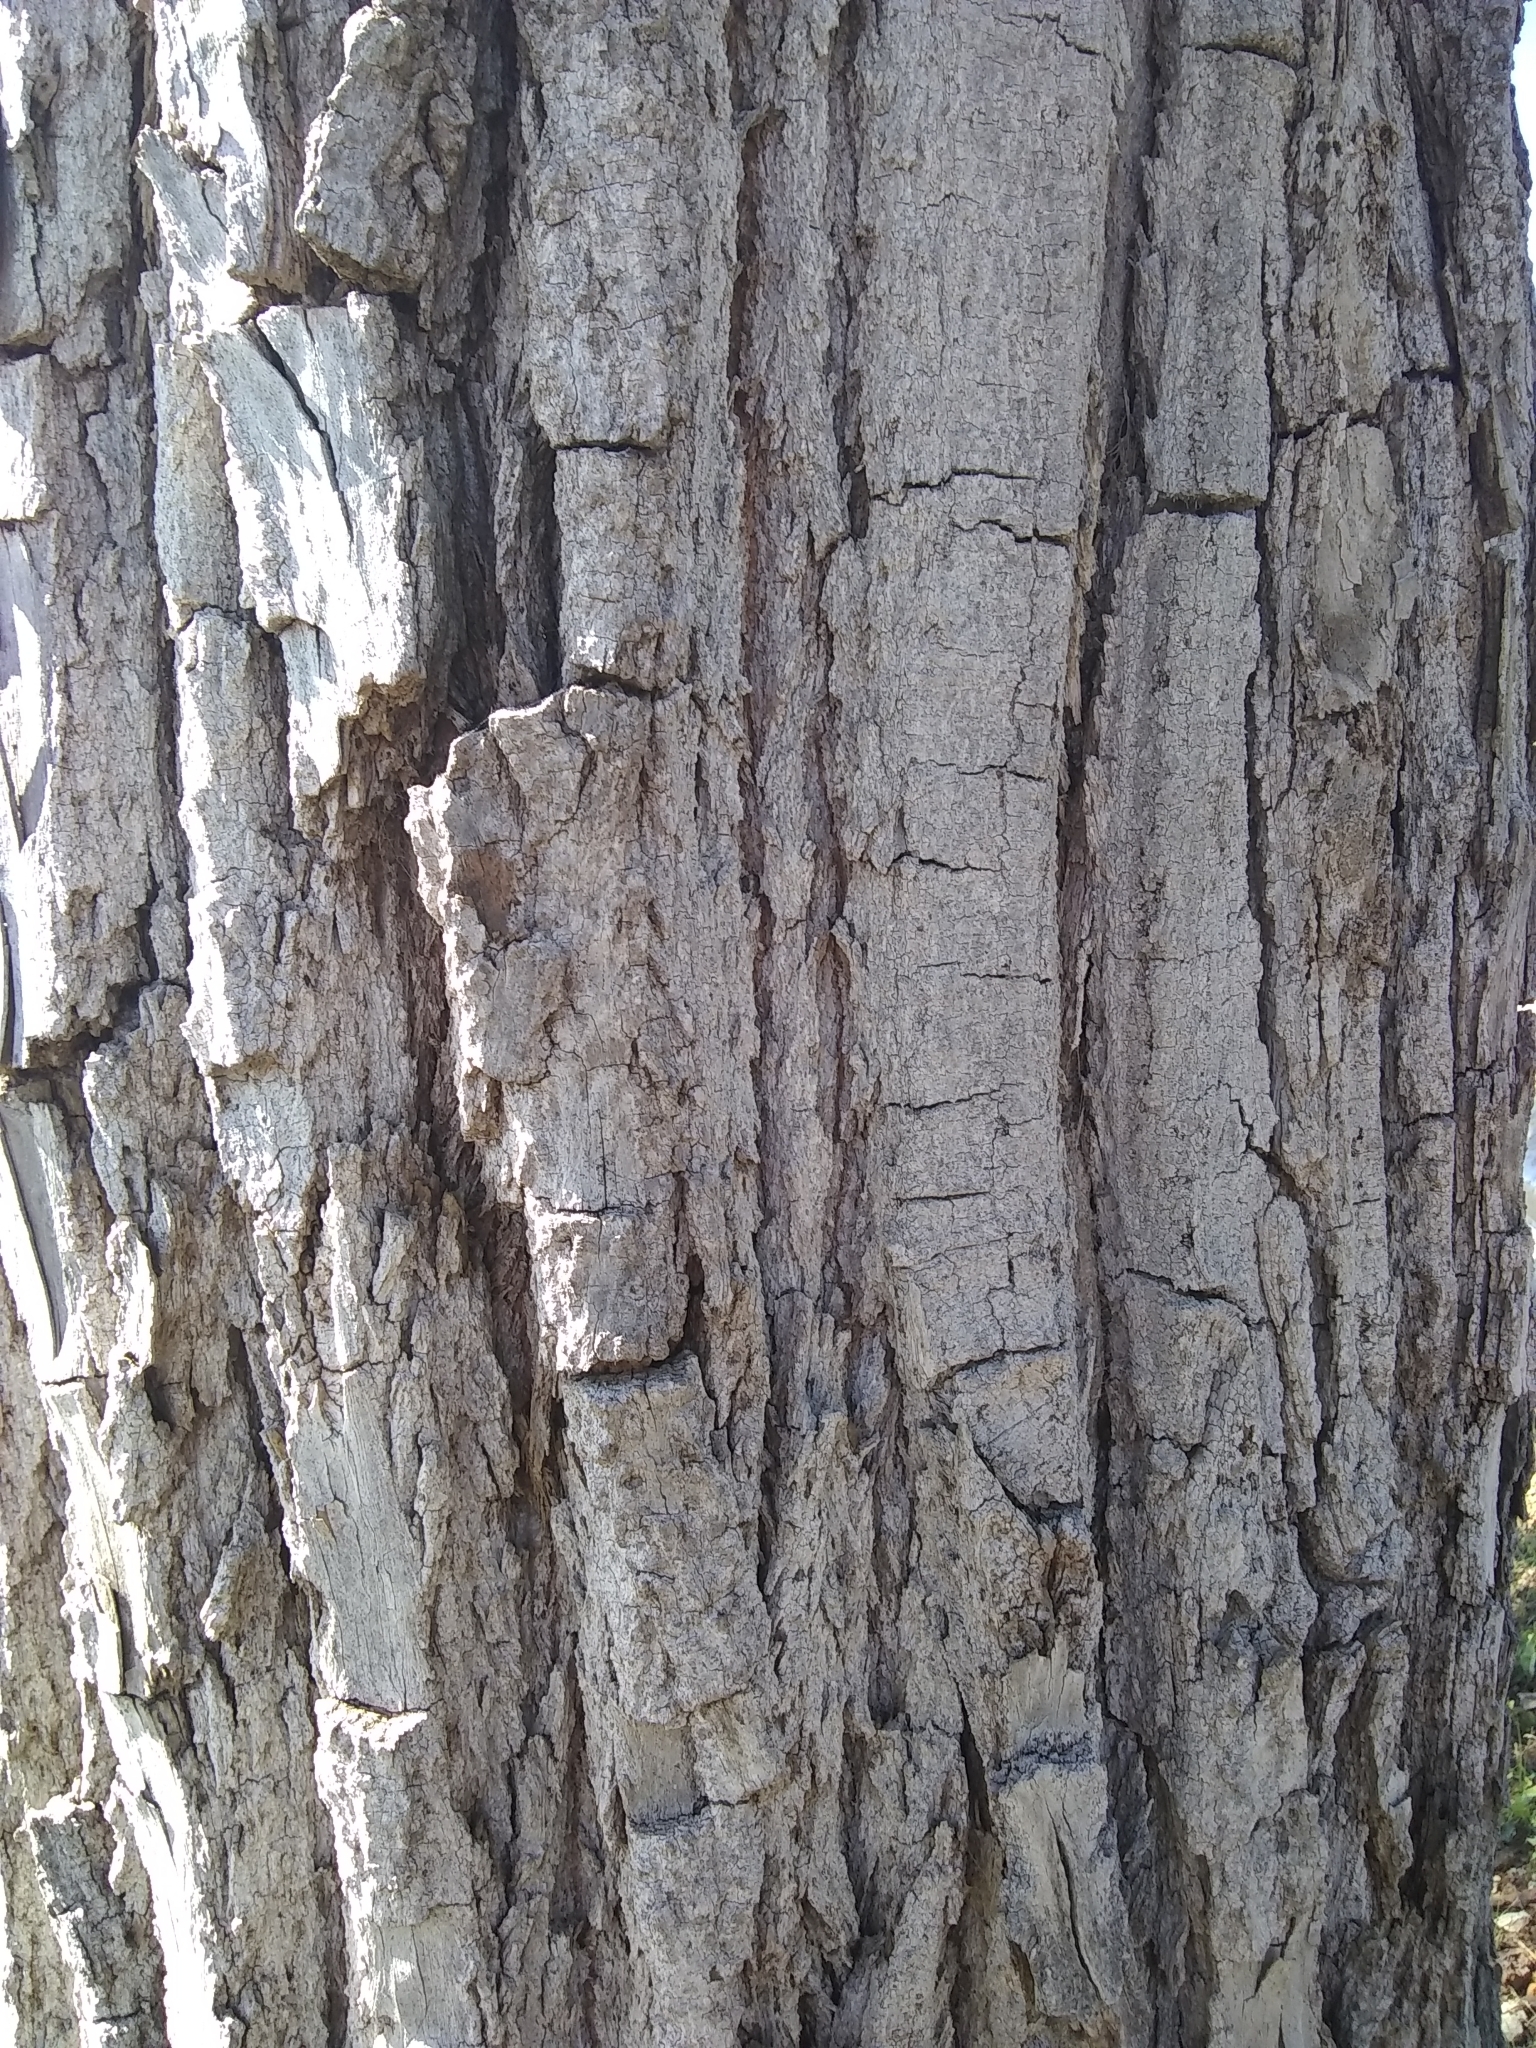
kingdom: Plantae
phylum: Tracheophyta
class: Magnoliopsida
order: Malpighiales
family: Salicaceae
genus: Populus
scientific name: Populus deltoides
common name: Eastern cottonwood
